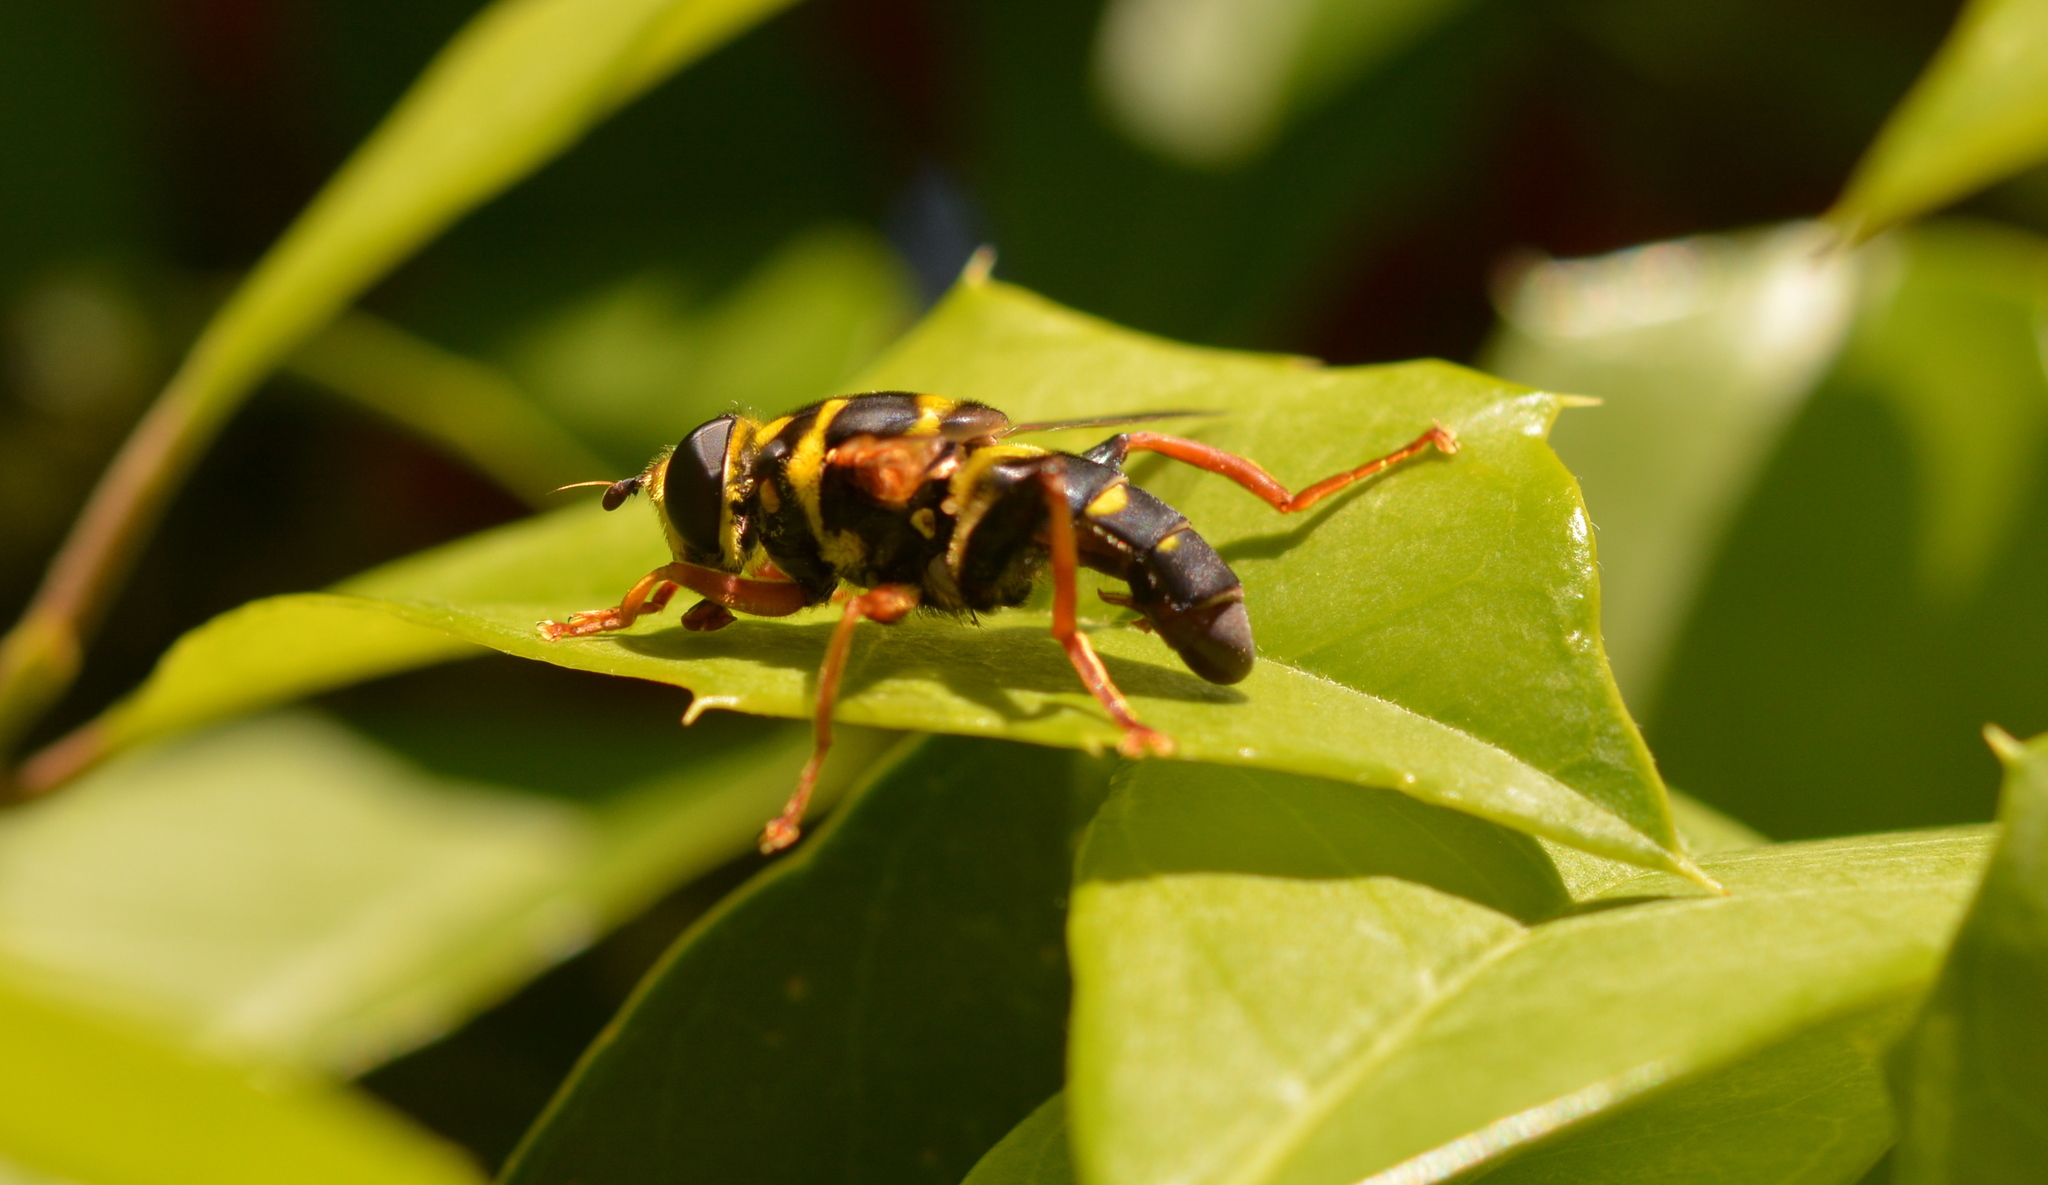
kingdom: Animalia
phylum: Arthropoda
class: Insecta
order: Diptera
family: Syrphidae
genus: Meromacrus
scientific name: Meromacrus acutus
